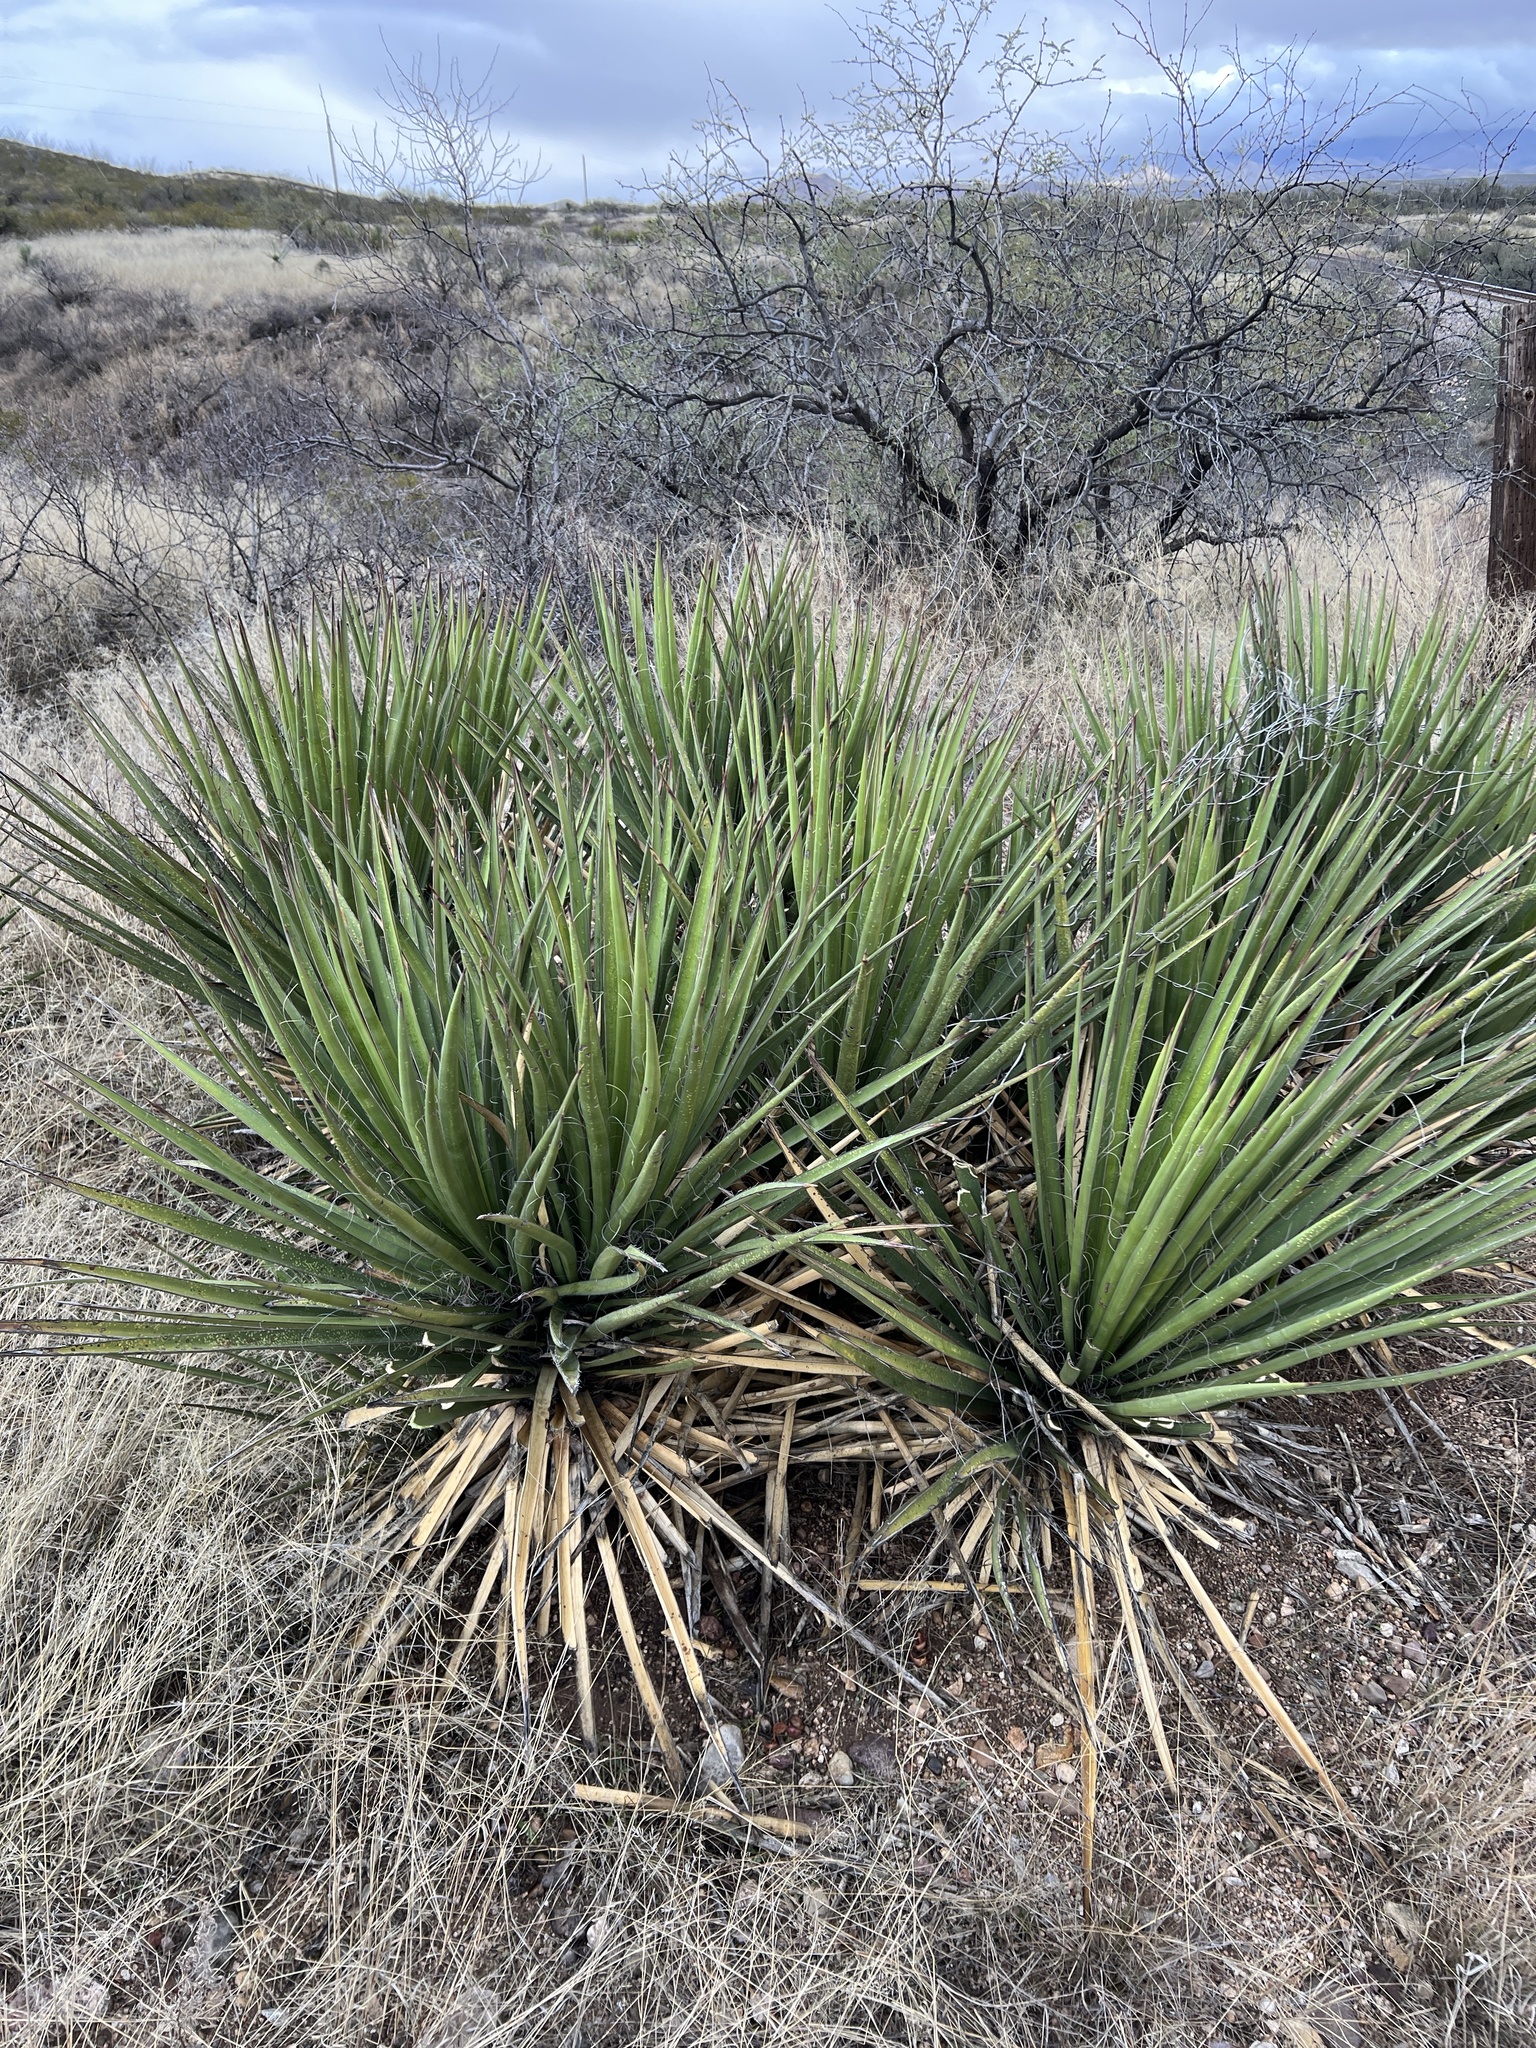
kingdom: Plantae
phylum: Tracheophyta
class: Liliopsida
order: Asparagales
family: Asparagaceae
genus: Yucca
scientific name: Yucca baccata
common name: Banana yucca
